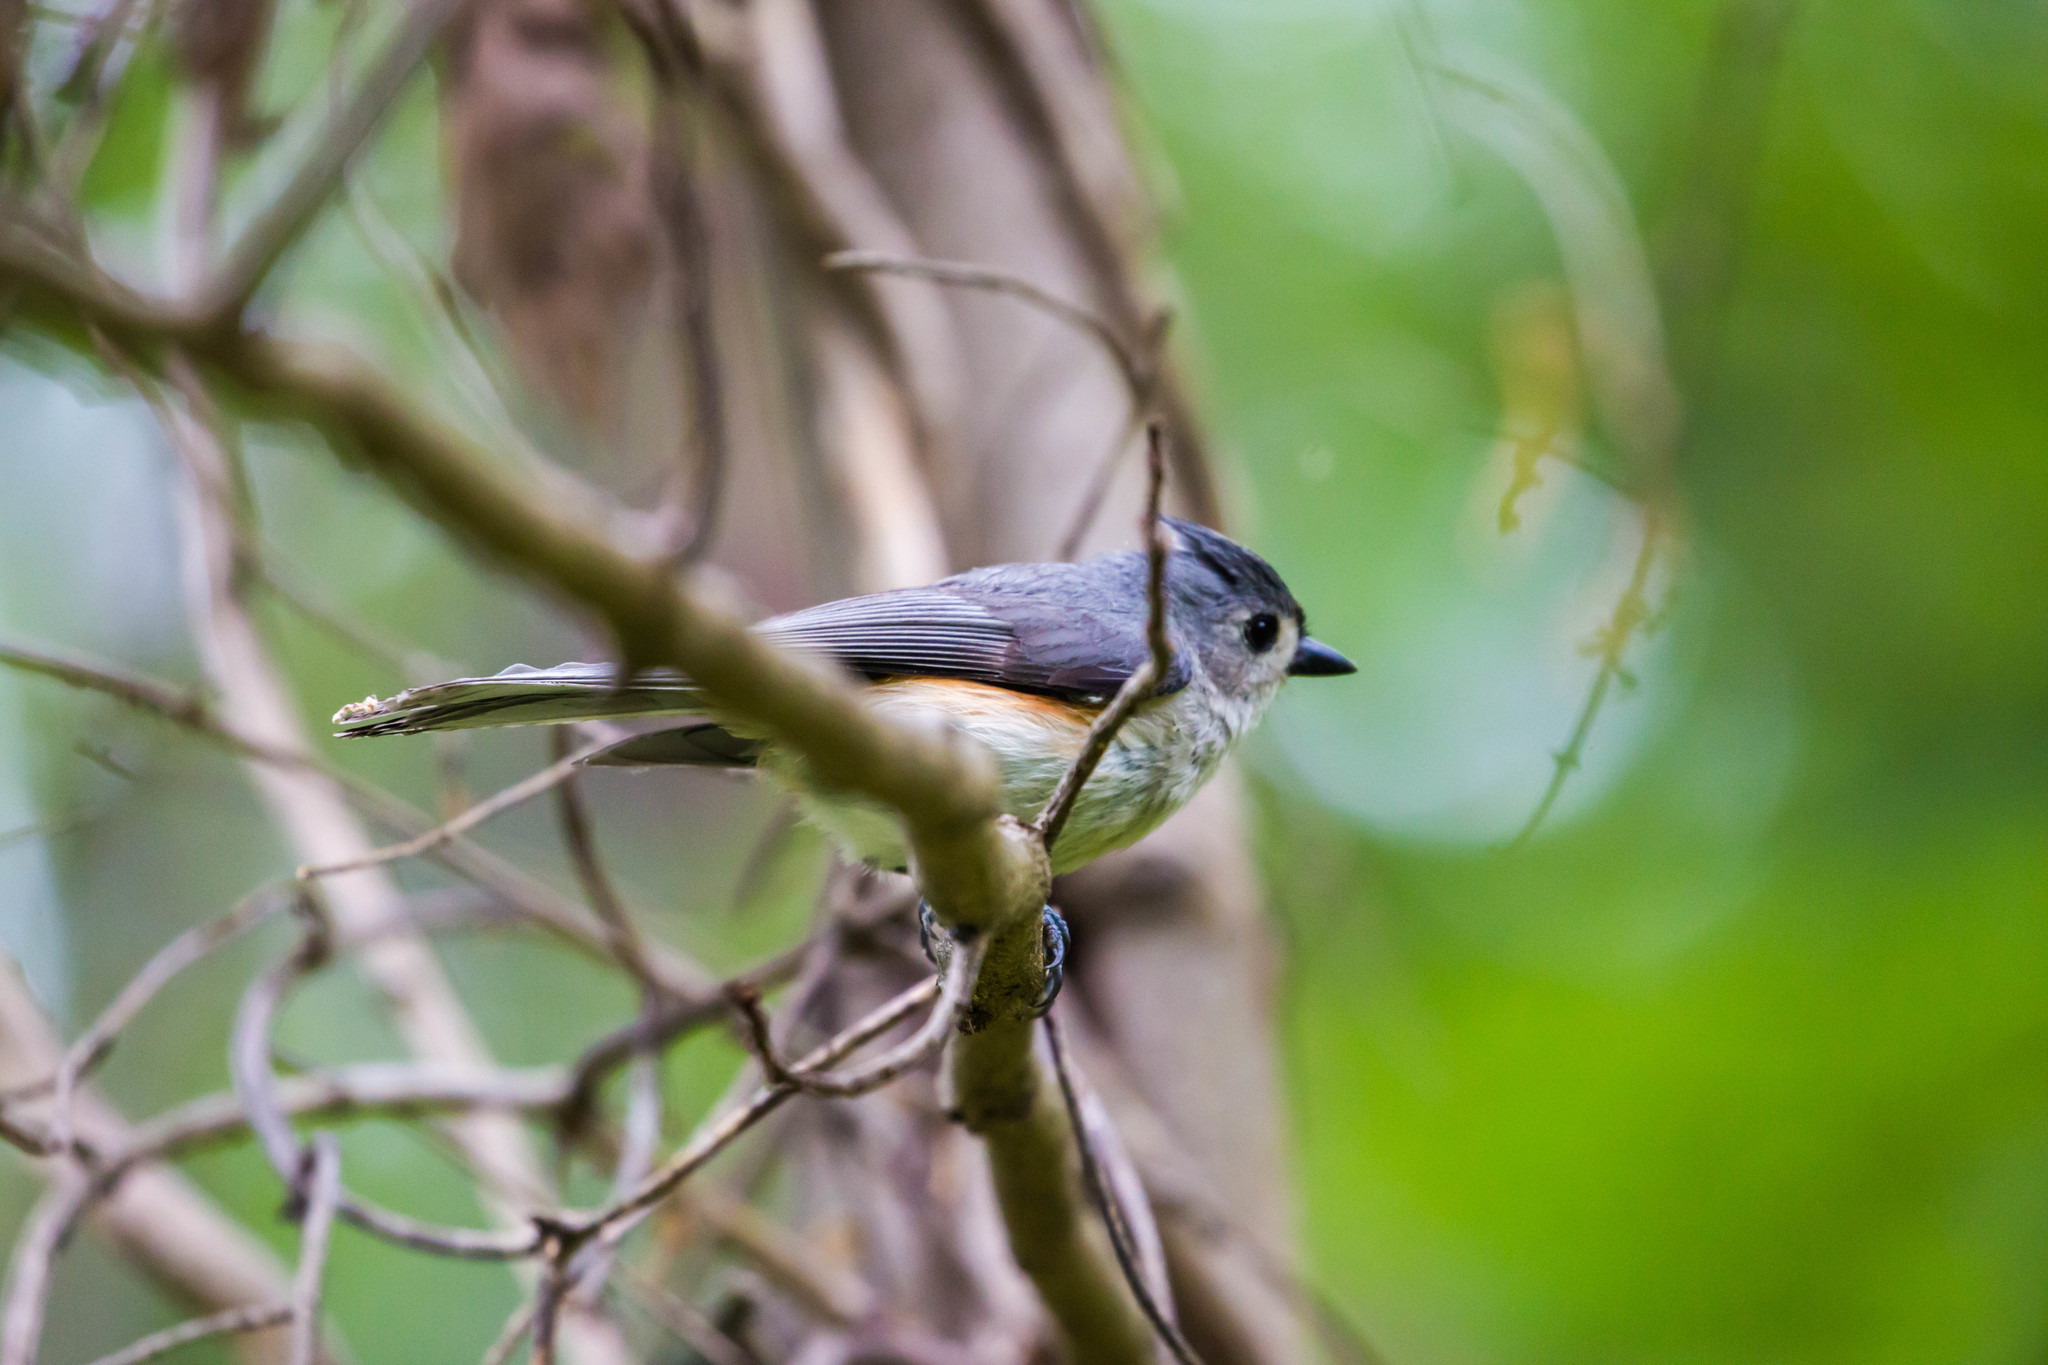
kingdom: Animalia
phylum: Chordata
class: Aves
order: Passeriformes
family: Paridae
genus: Baeolophus
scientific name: Baeolophus bicolor
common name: Tufted titmouse
